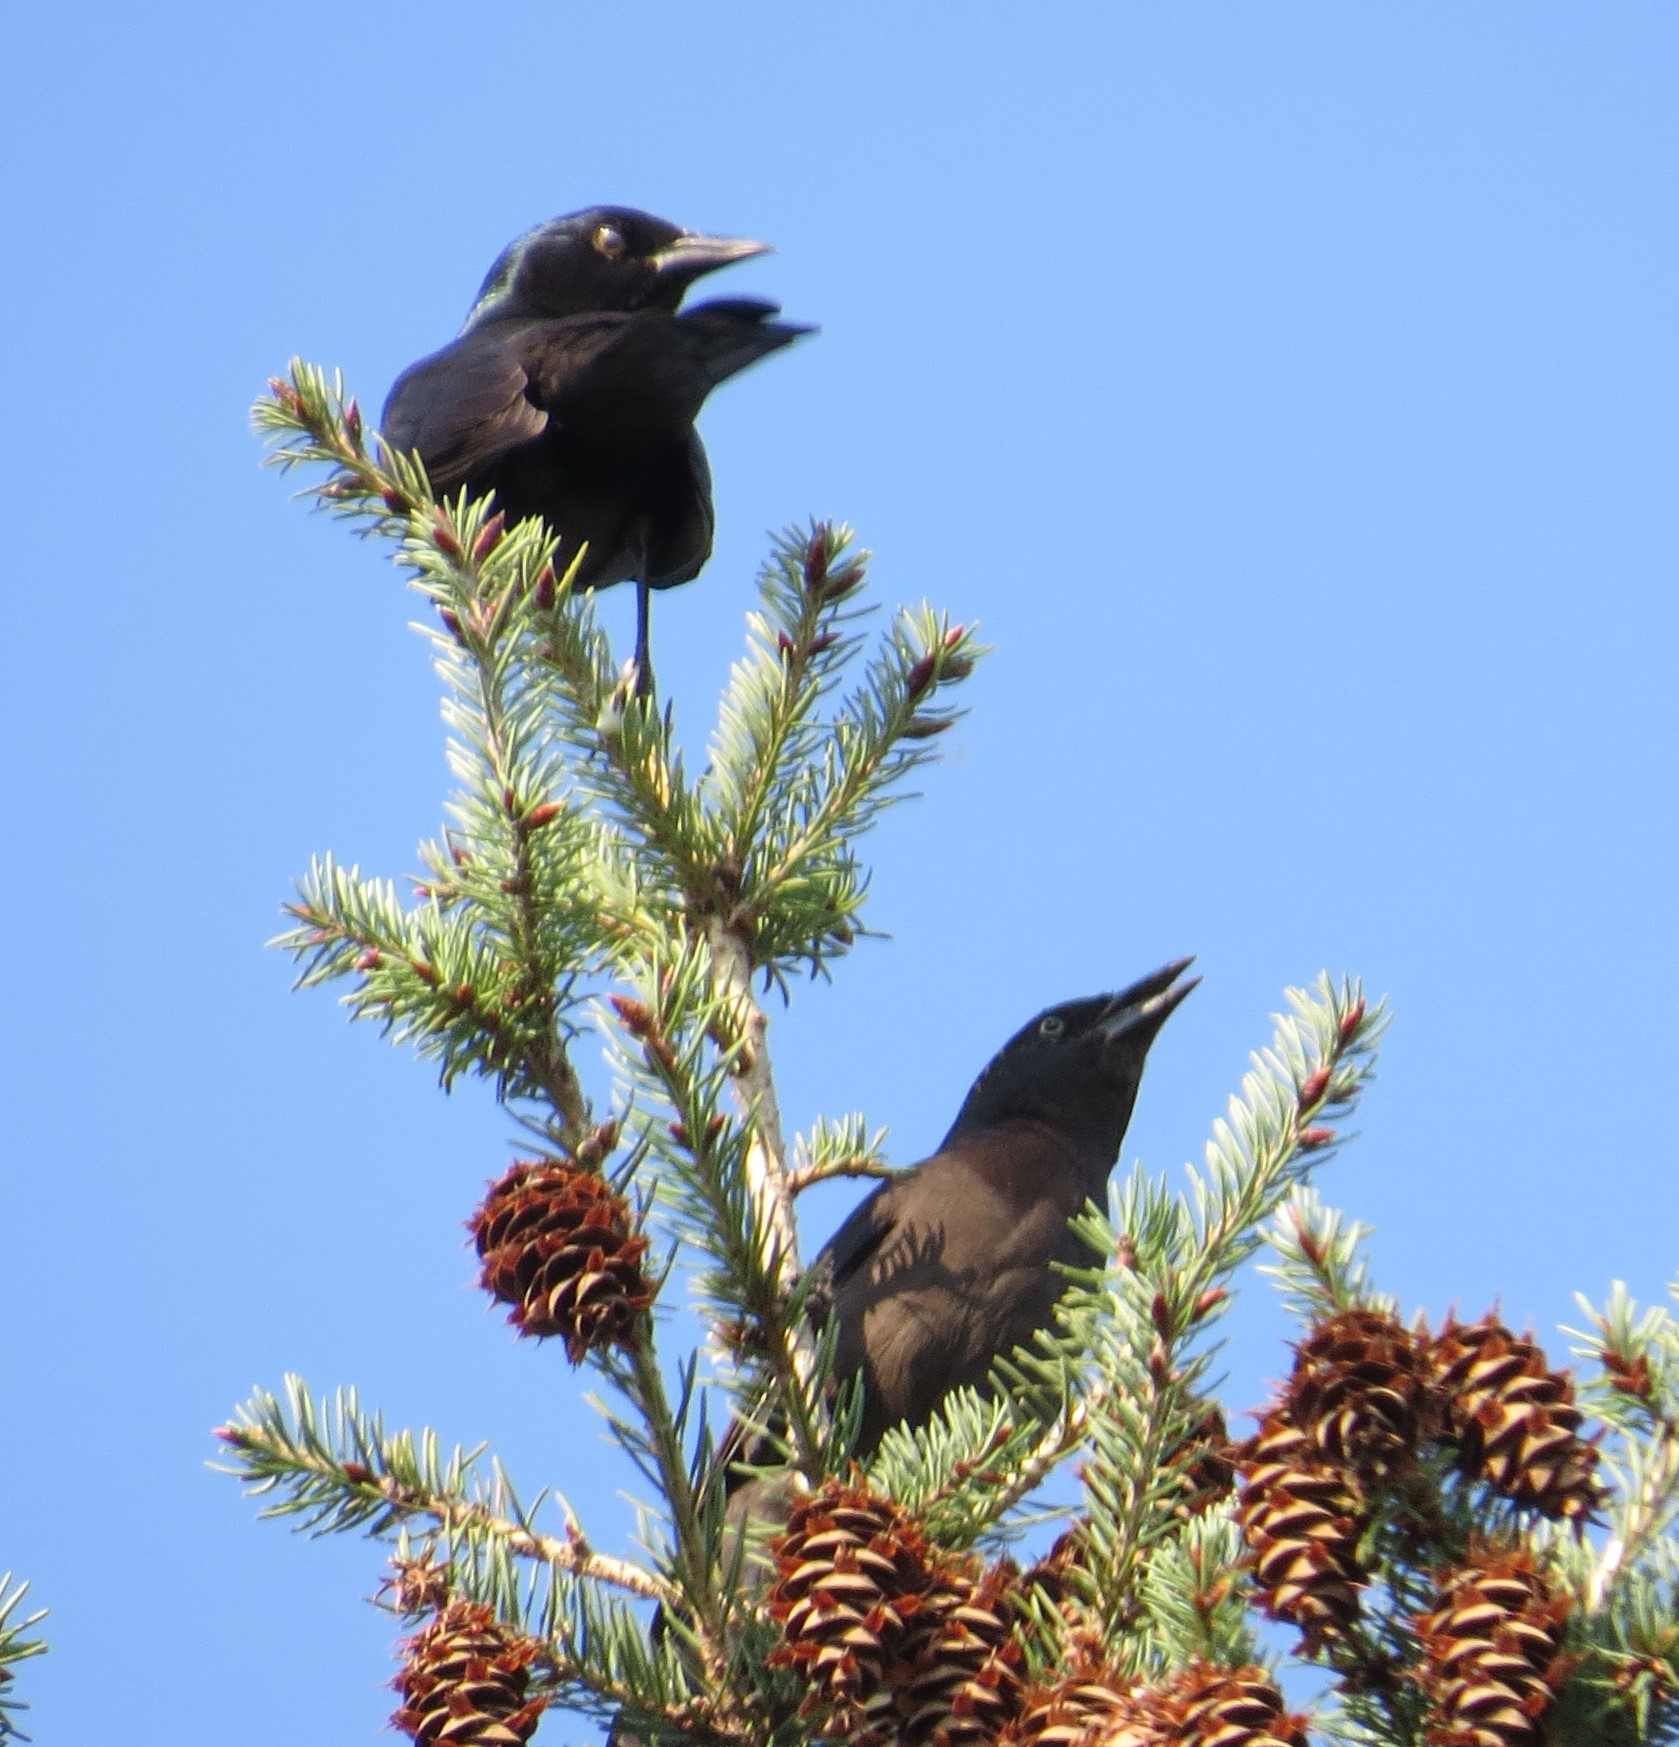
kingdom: Animalia
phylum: Chordata
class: Aves
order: Passeriformes
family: Icteridae
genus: Quiscalus
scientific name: Quiscalus quiscula
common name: Common grackle
